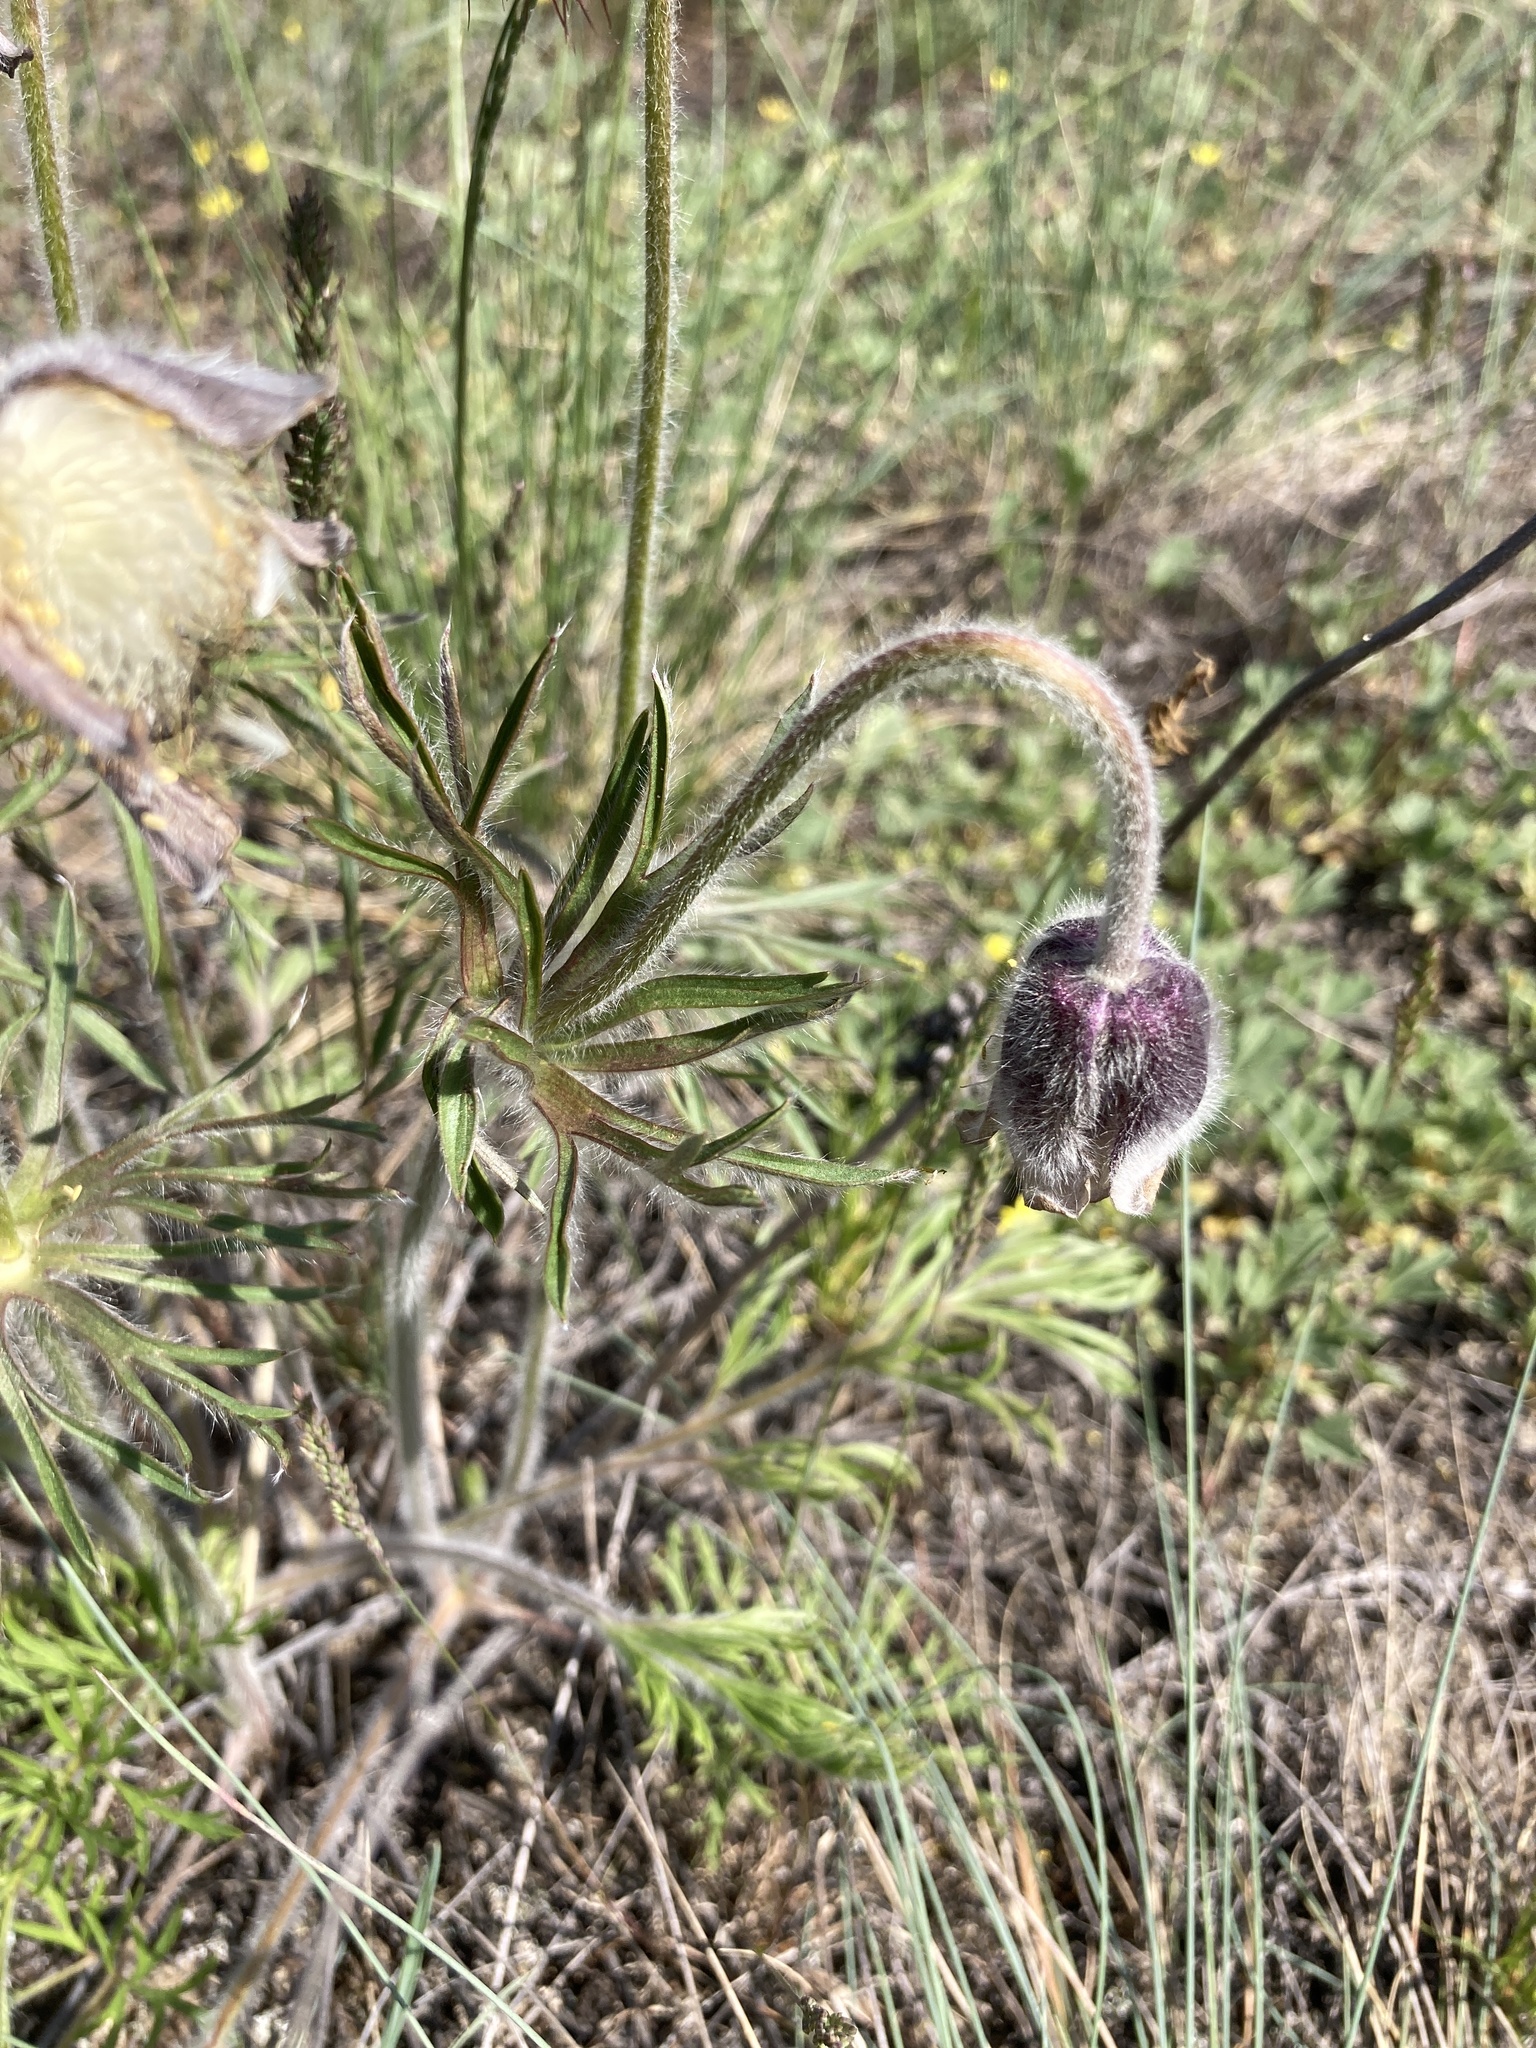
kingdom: Plantae
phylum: Tracheophyta
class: Magnoliopsida
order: Ranunculales
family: Ranunculaceae
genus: Pulsatilla
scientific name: Pulsatilla pratensis
